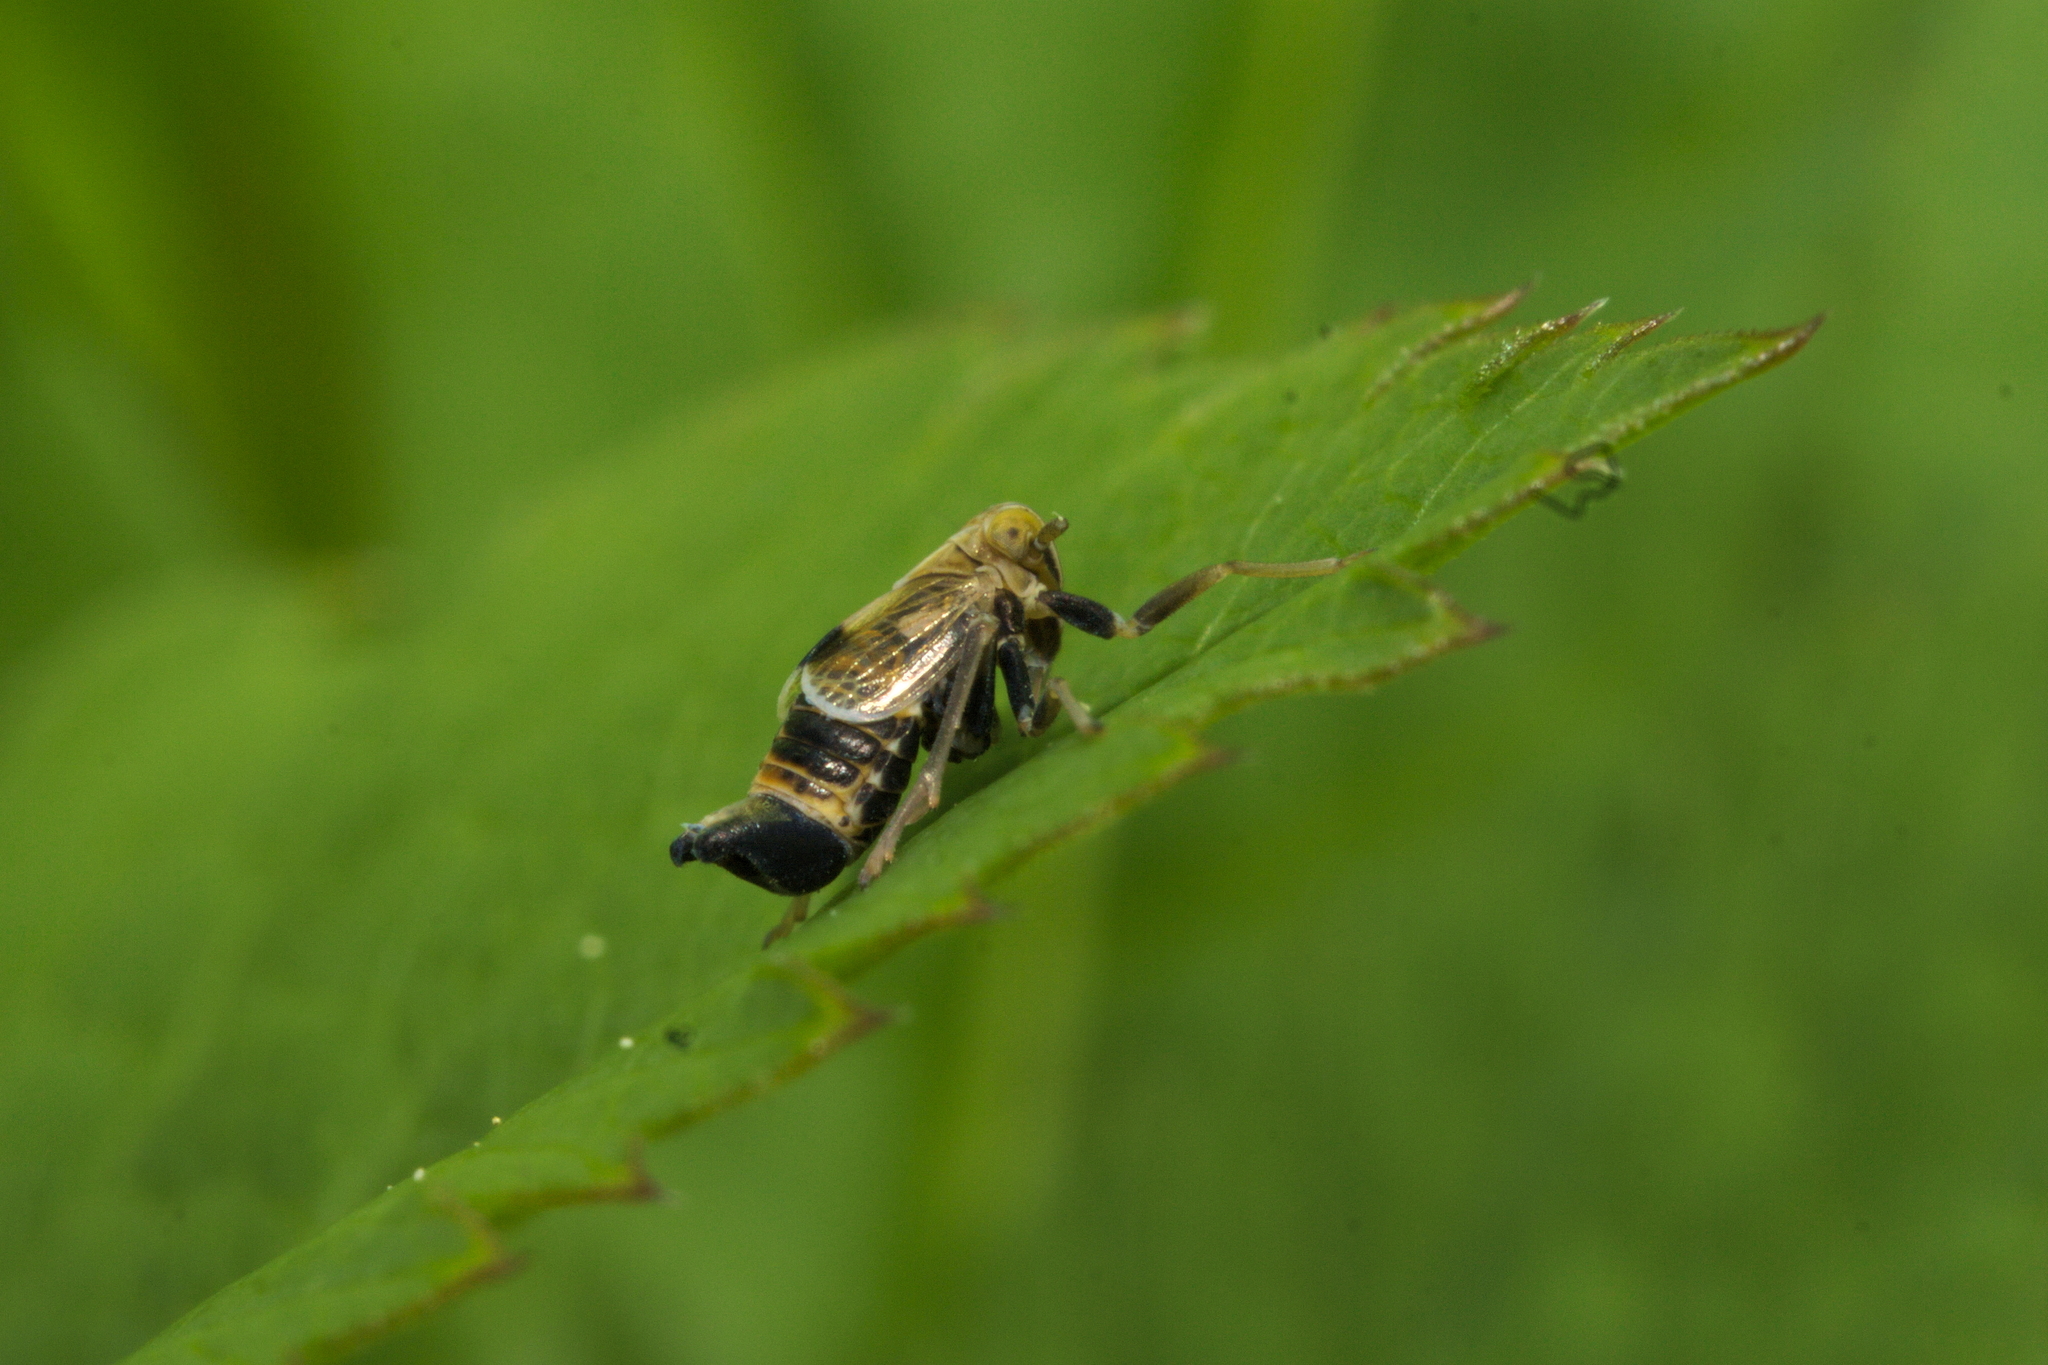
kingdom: Animalia
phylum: Arthropoda
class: Insecta
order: Hemiptera
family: Delphacidae
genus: Dicranotropis
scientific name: Dicranotropis hamata
